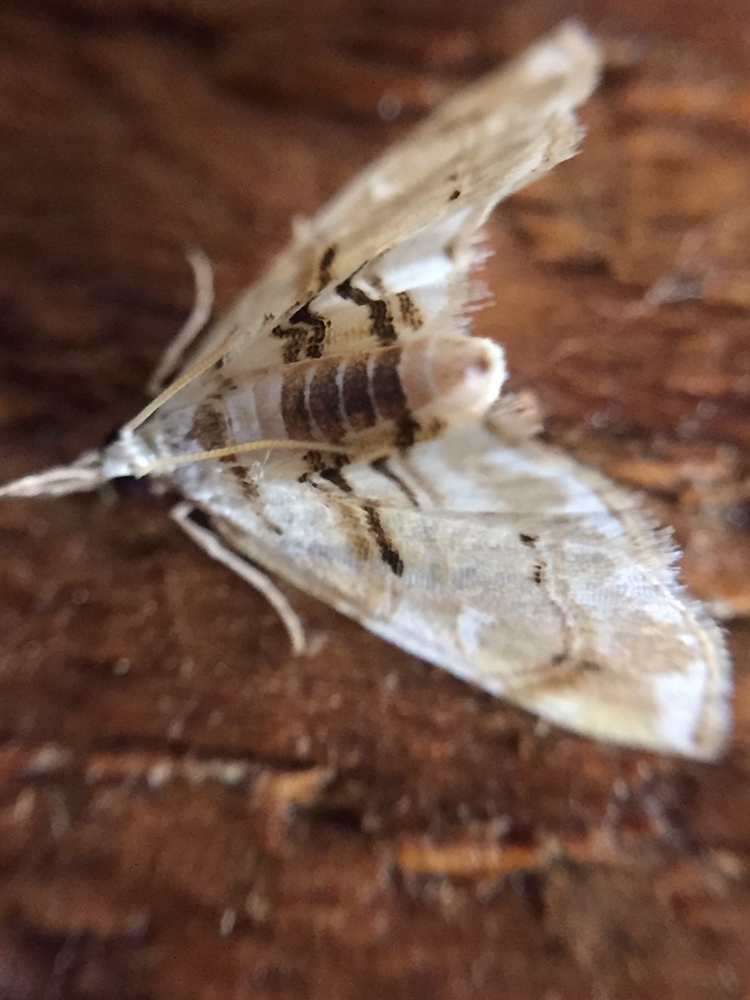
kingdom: Animalia
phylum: Arthropoda
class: Insecta
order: Lepidoptera
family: Crambidae
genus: Trichophysetis
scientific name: Trichophysetis
